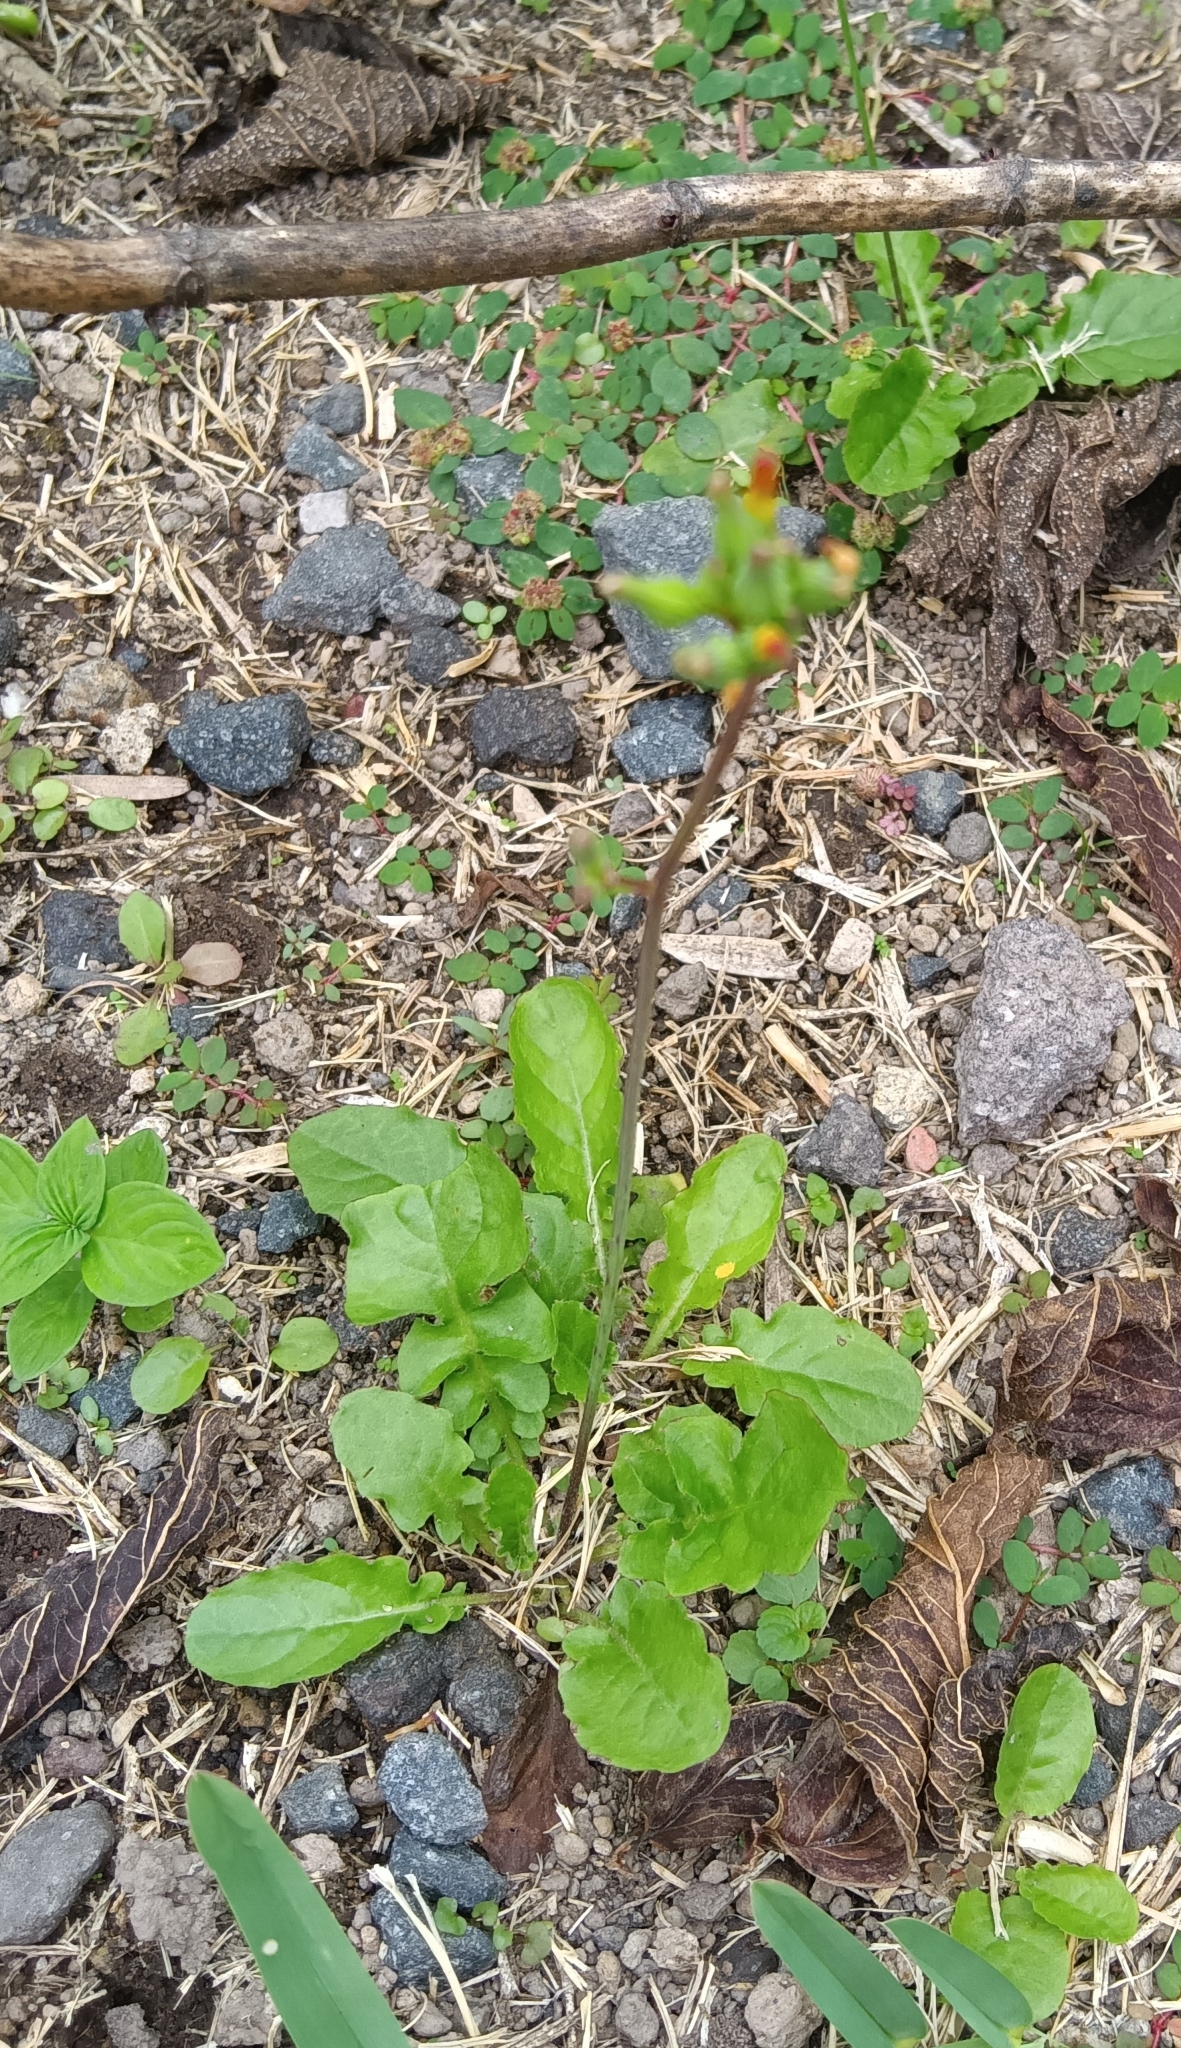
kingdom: Plantae
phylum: Tracheophyta
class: Magnoliopsida
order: Asterales
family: Asteraceae
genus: Youngia
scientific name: Youngia japonica
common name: Oriental false hawksbeard
